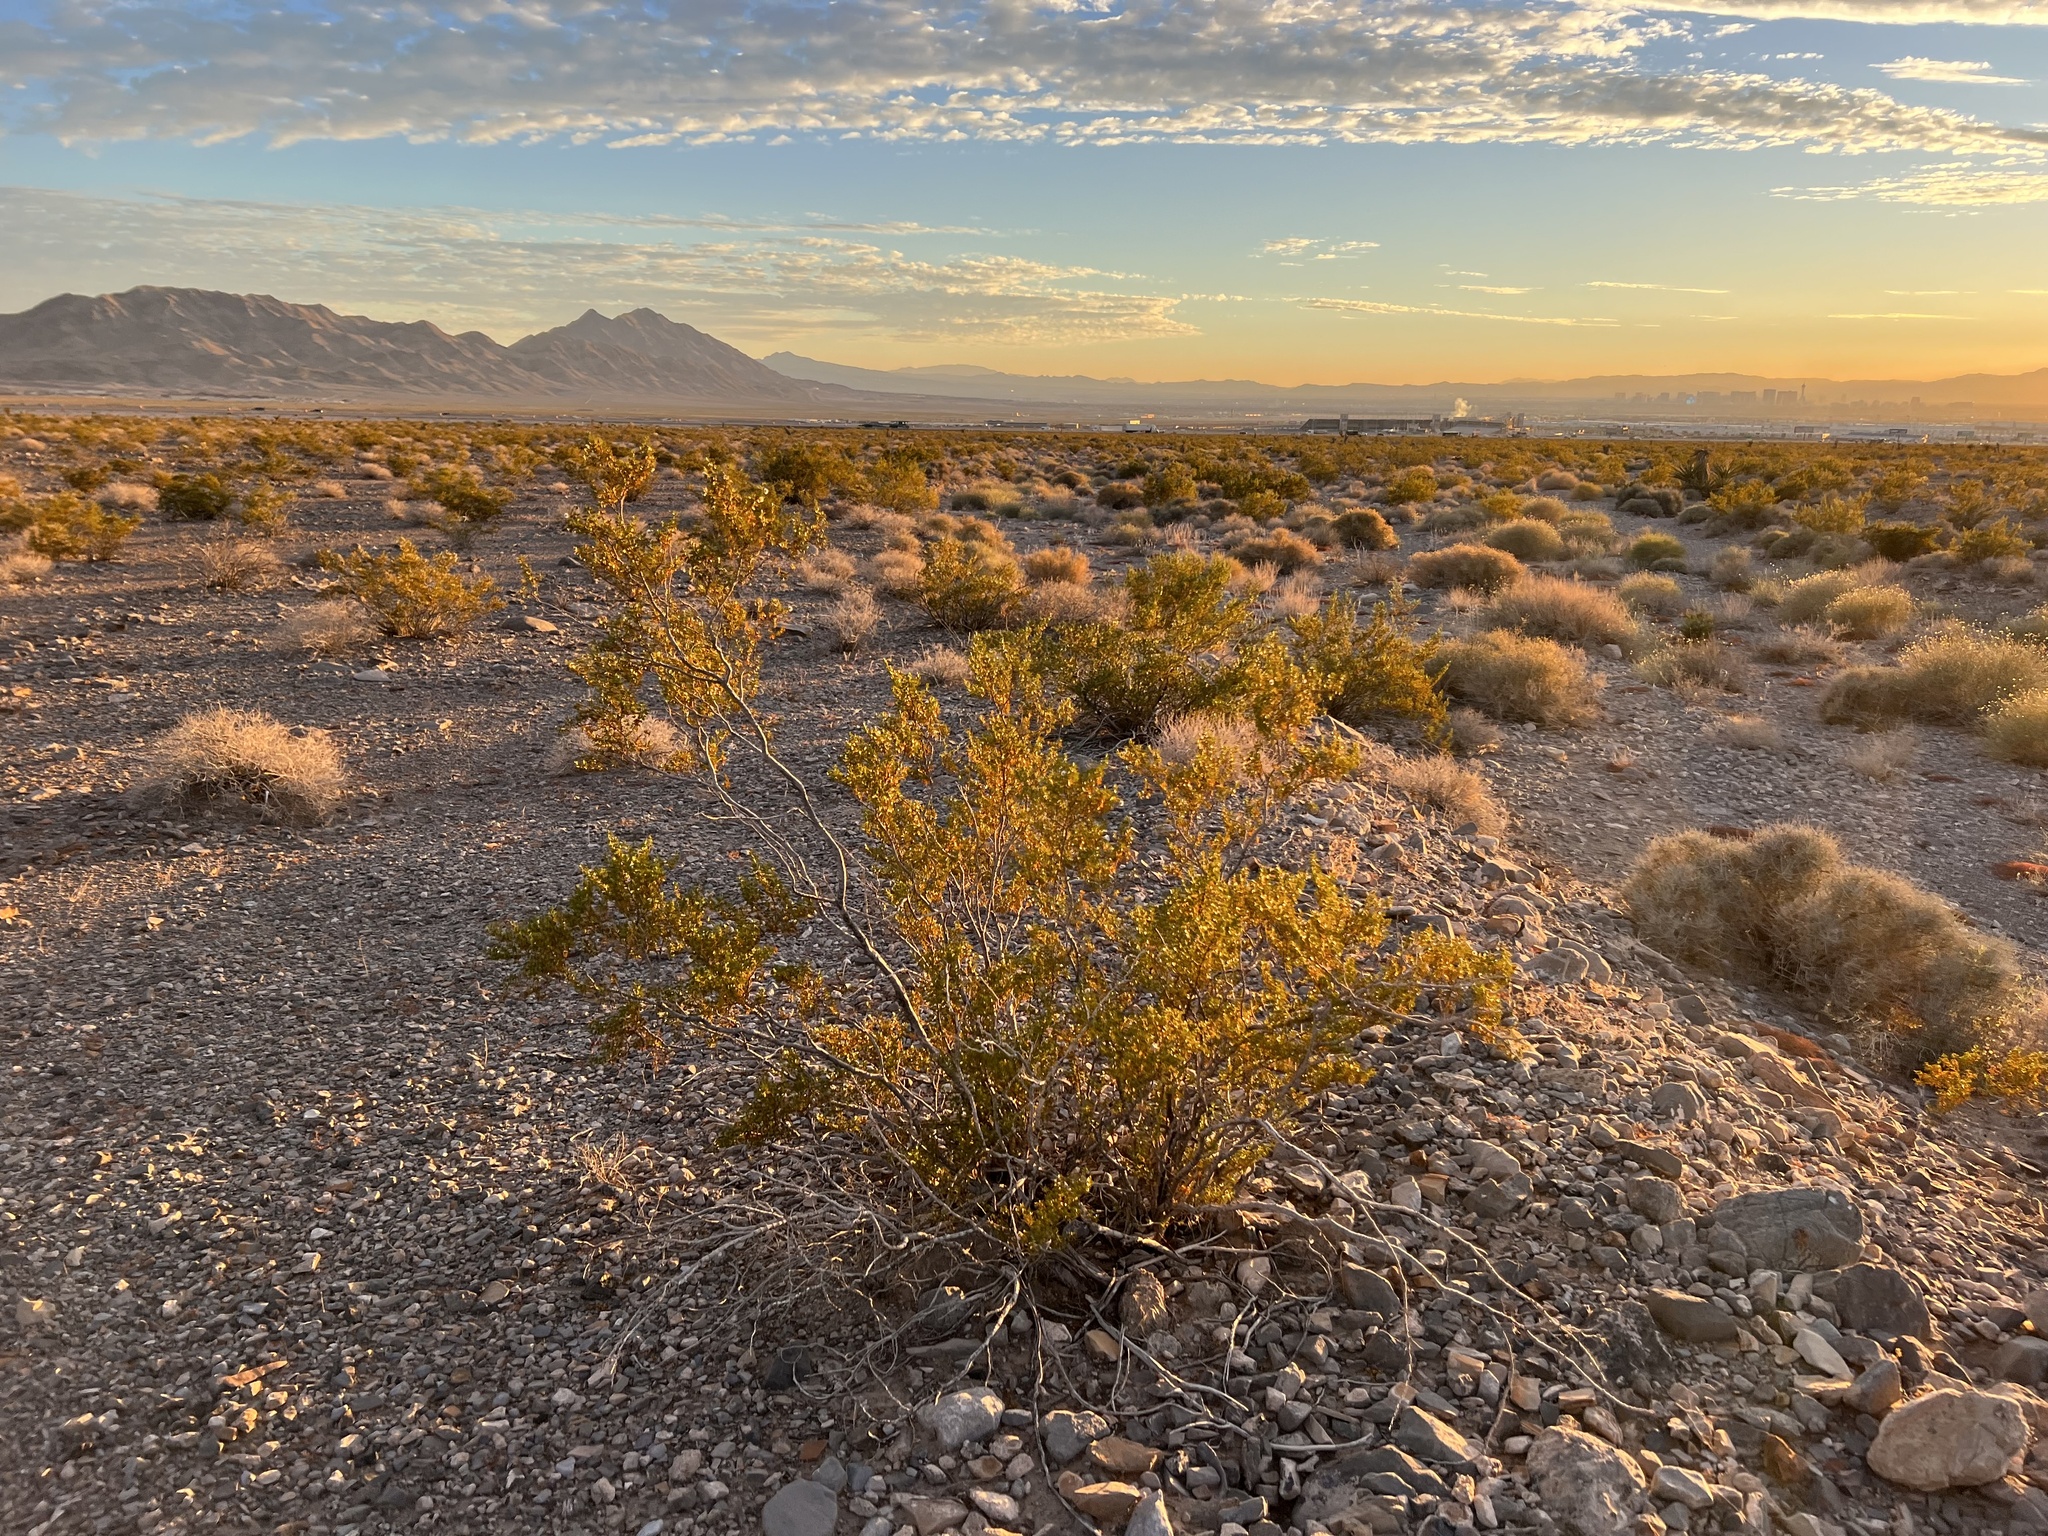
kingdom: Plantae
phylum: Tracheophyta
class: Magnoliopsida
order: Zygophyllales
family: Zygophyllaceae
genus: Larrea
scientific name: Larrea tridentata
